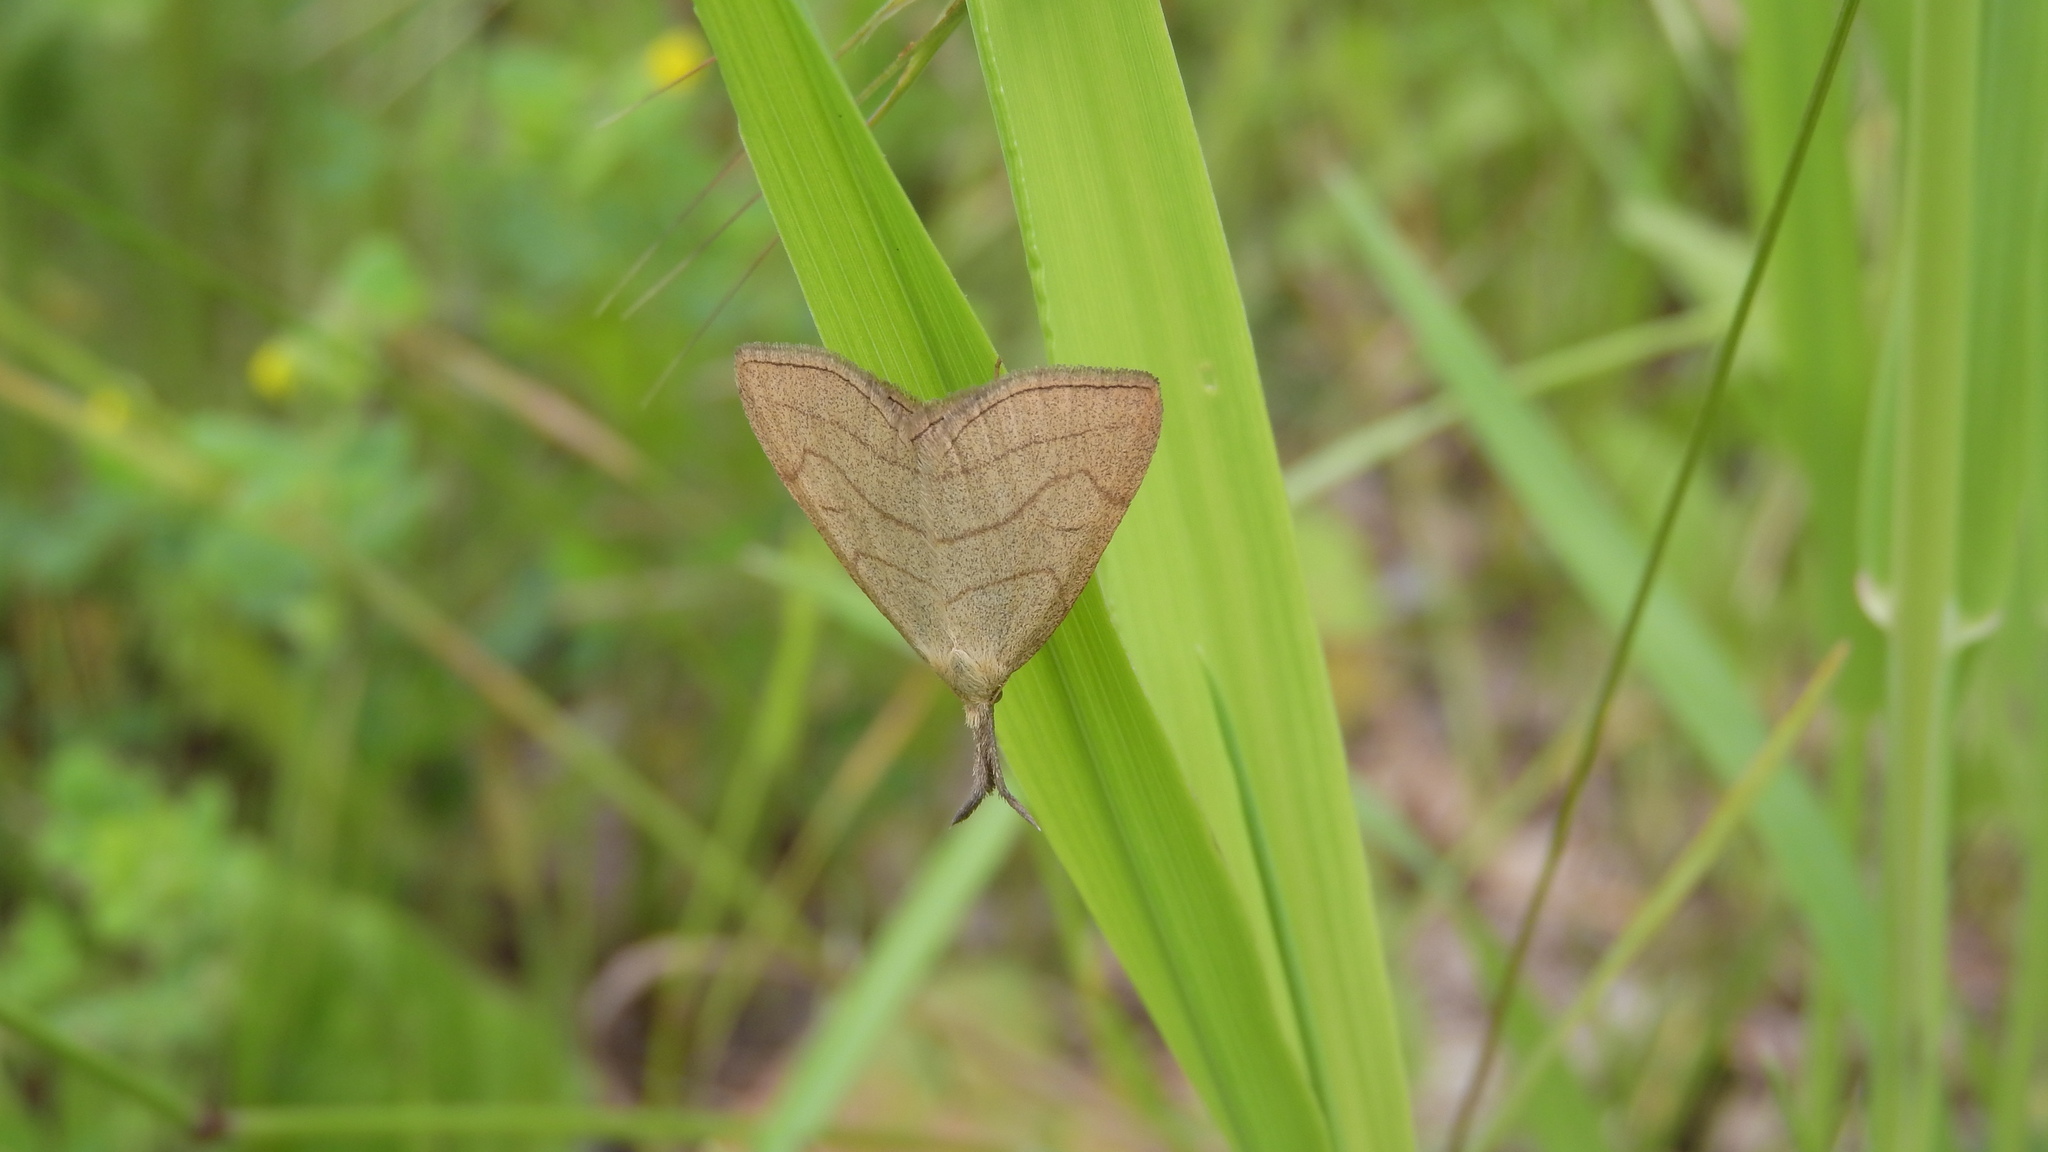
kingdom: Animalia
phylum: Arthropoda
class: Insecta
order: Lepidoptera
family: Erebidae
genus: Polypogon
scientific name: Polypogon tentacularia
